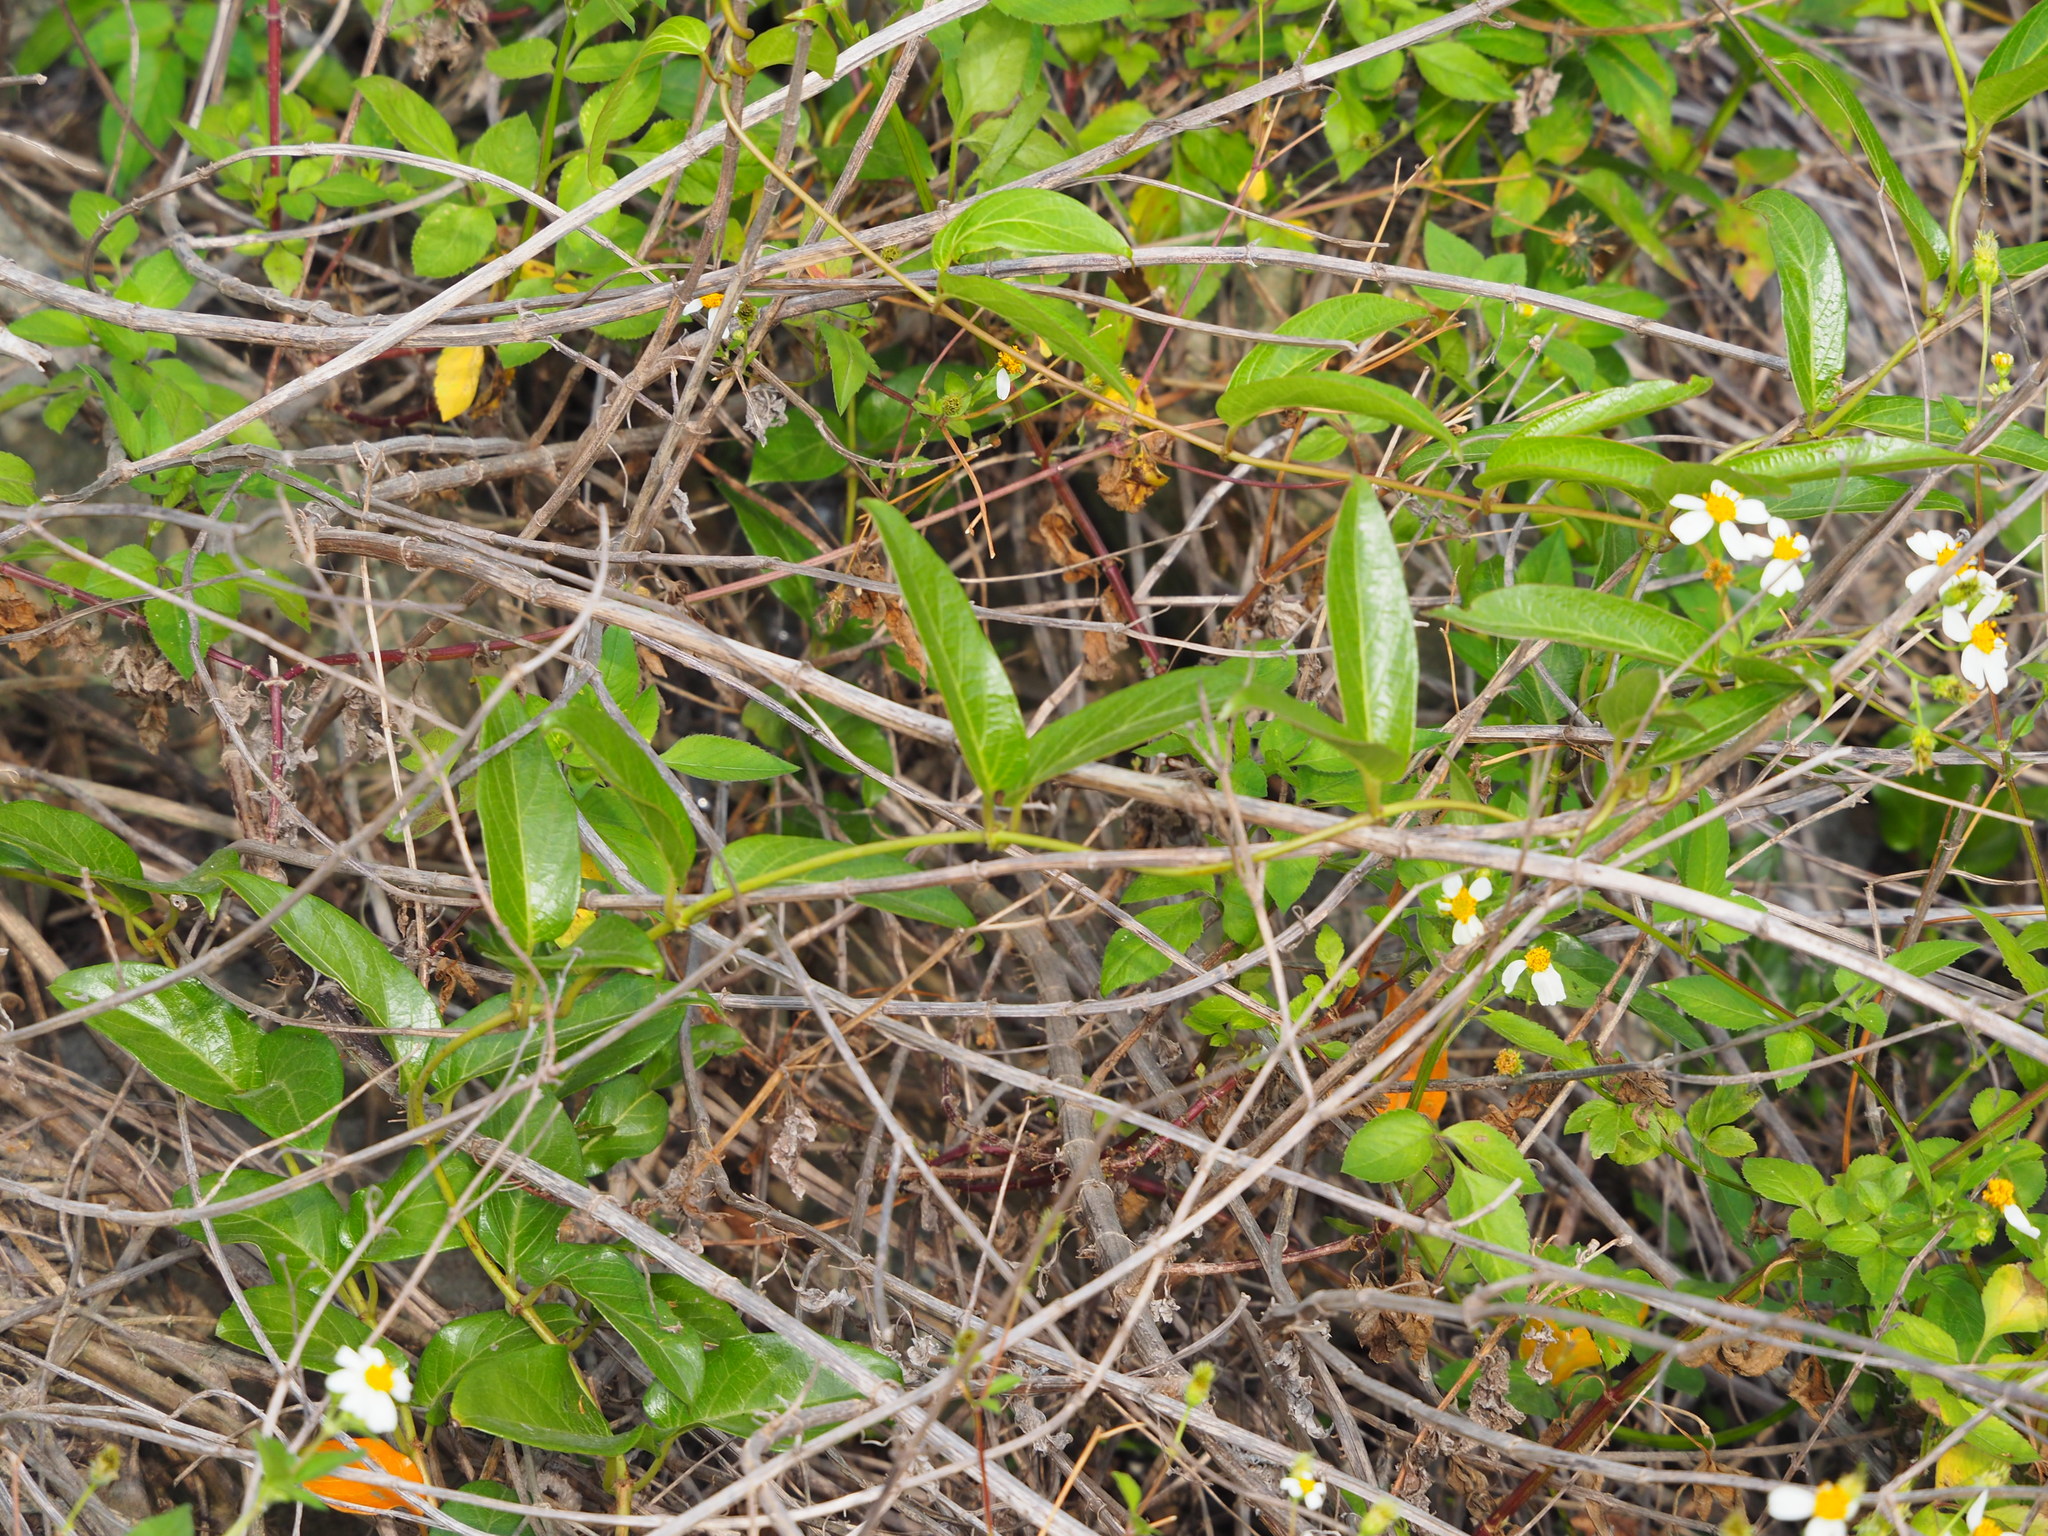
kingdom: Plantae
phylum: Tracheophyta
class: Magnoliopsida
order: Gentianales
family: Rubiaceae
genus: Paederia
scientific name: Paederia foetida
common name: Stinkvine
